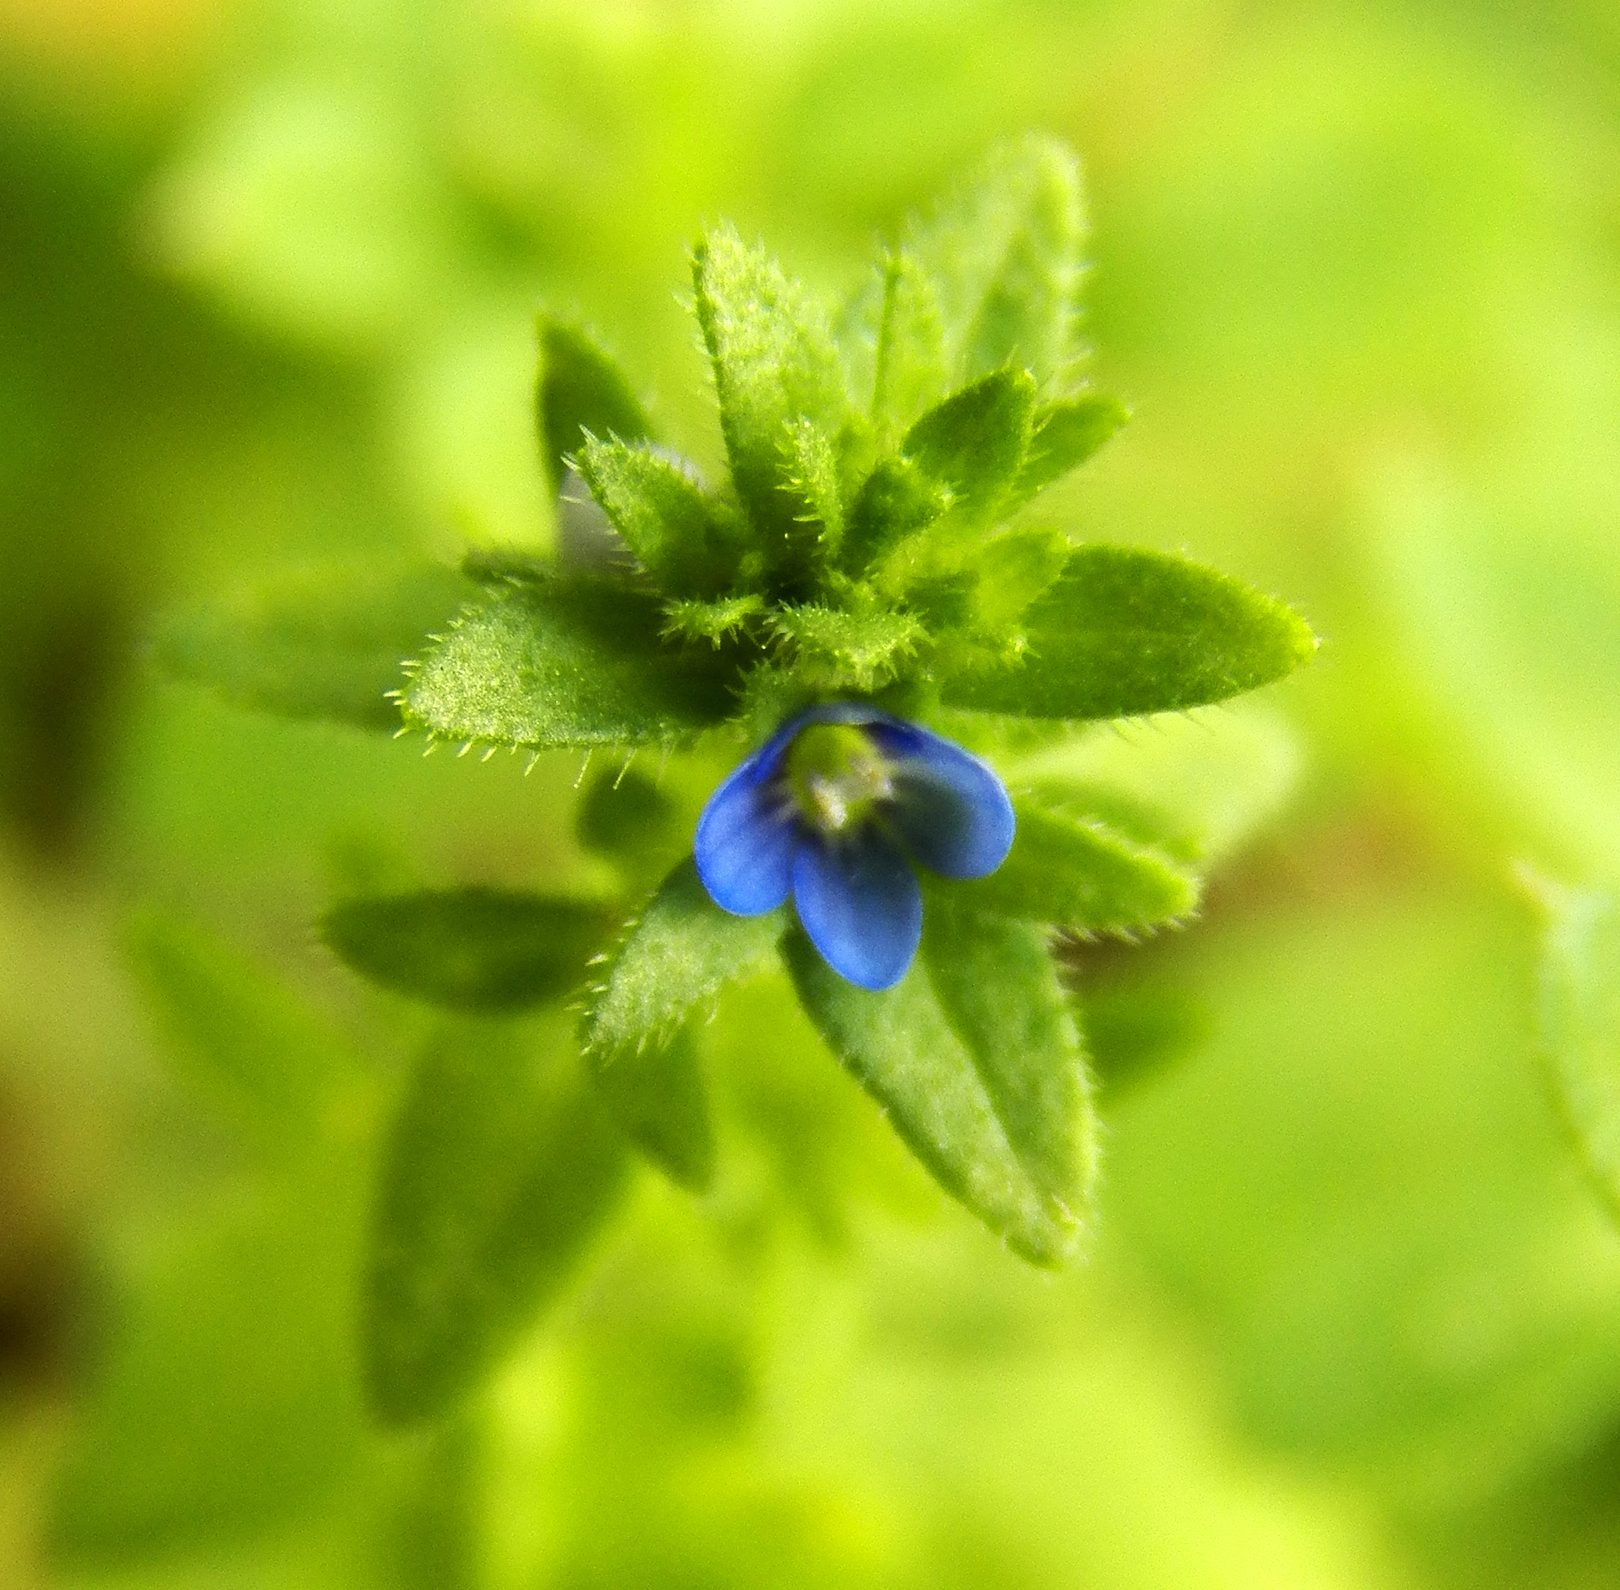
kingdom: Plantae
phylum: Tracheophyta
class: Magnoliopsida
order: Lamiales
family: Plantaginaceae
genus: Veronica
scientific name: Veronica arvensis
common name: Corn speedwell
